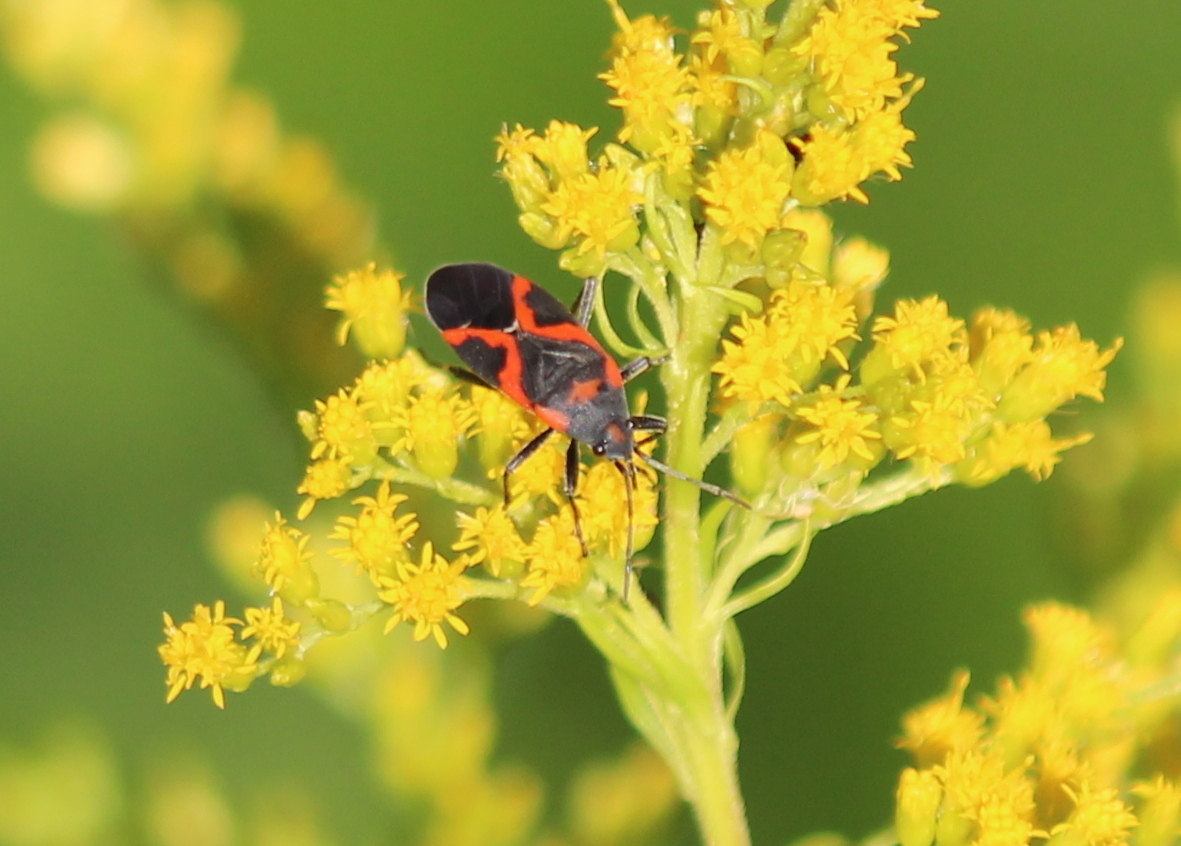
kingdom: Animalia
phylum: Arthropoda
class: Insecta
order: Hemiptera
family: Lygaeidae
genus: Lygaeus
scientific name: Lygaeus kalmii
